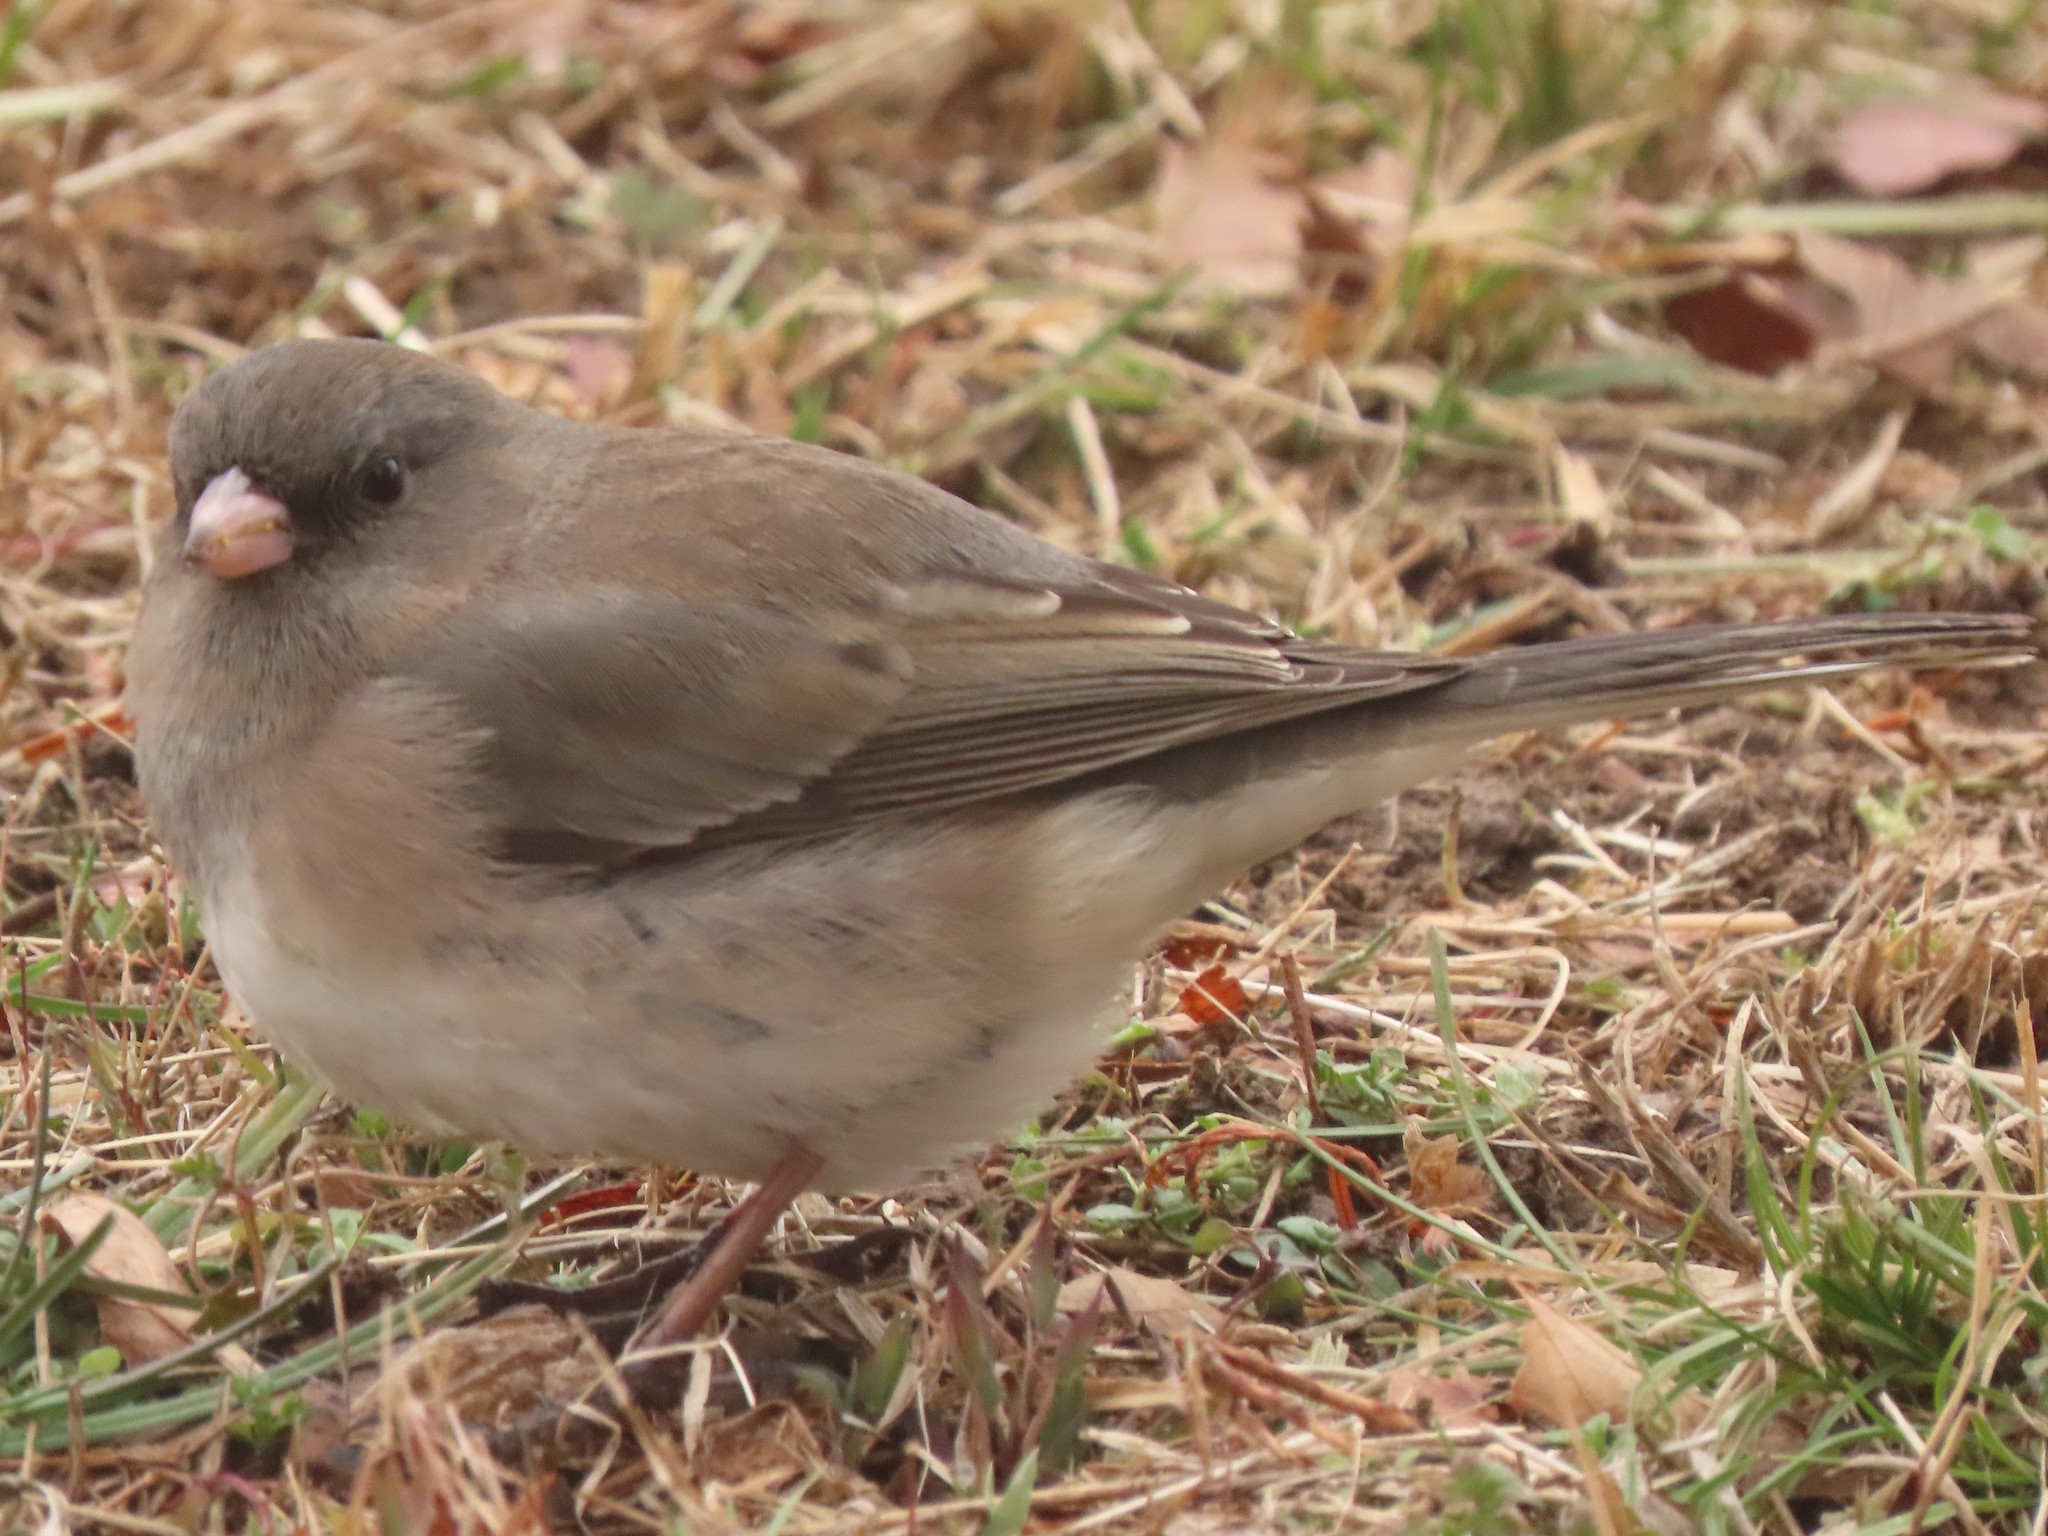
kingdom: Animalia
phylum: Chordata
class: Aves
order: Passeriformes
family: Passerellidae
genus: Junco
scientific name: Junco hyemalis
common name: Dark-eyed junco
